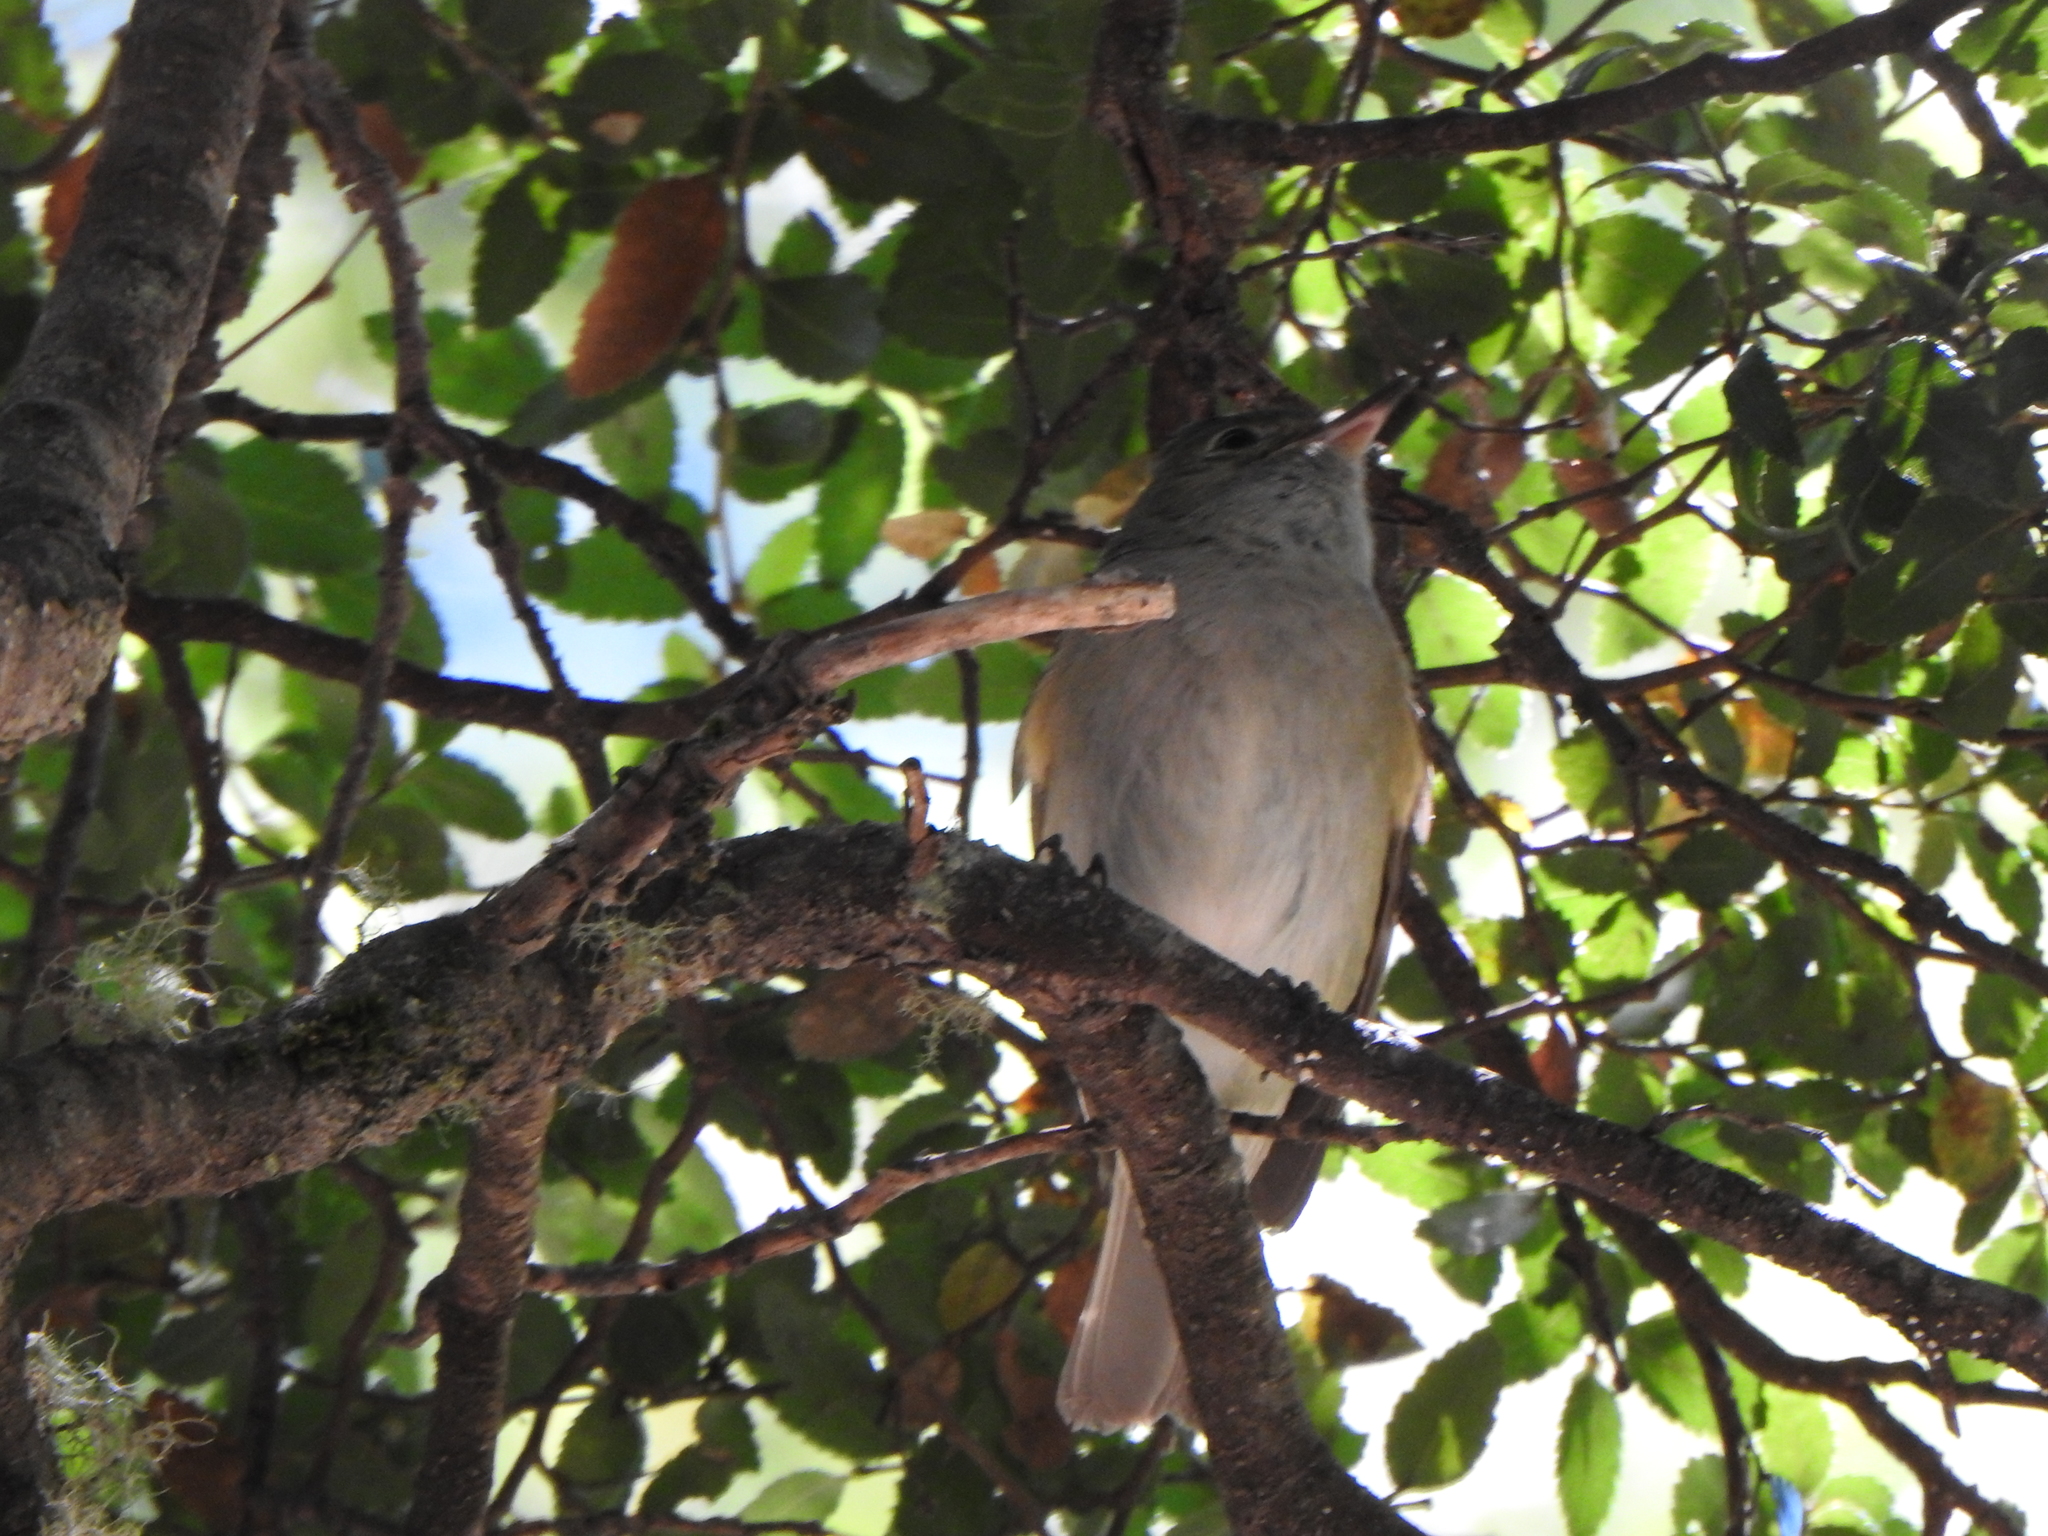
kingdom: Animalia
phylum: Chordata
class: Aves
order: Passeriformes
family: Tyrannidae
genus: Elaenia
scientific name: Elaenia albiceps
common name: White-crested elaenia
